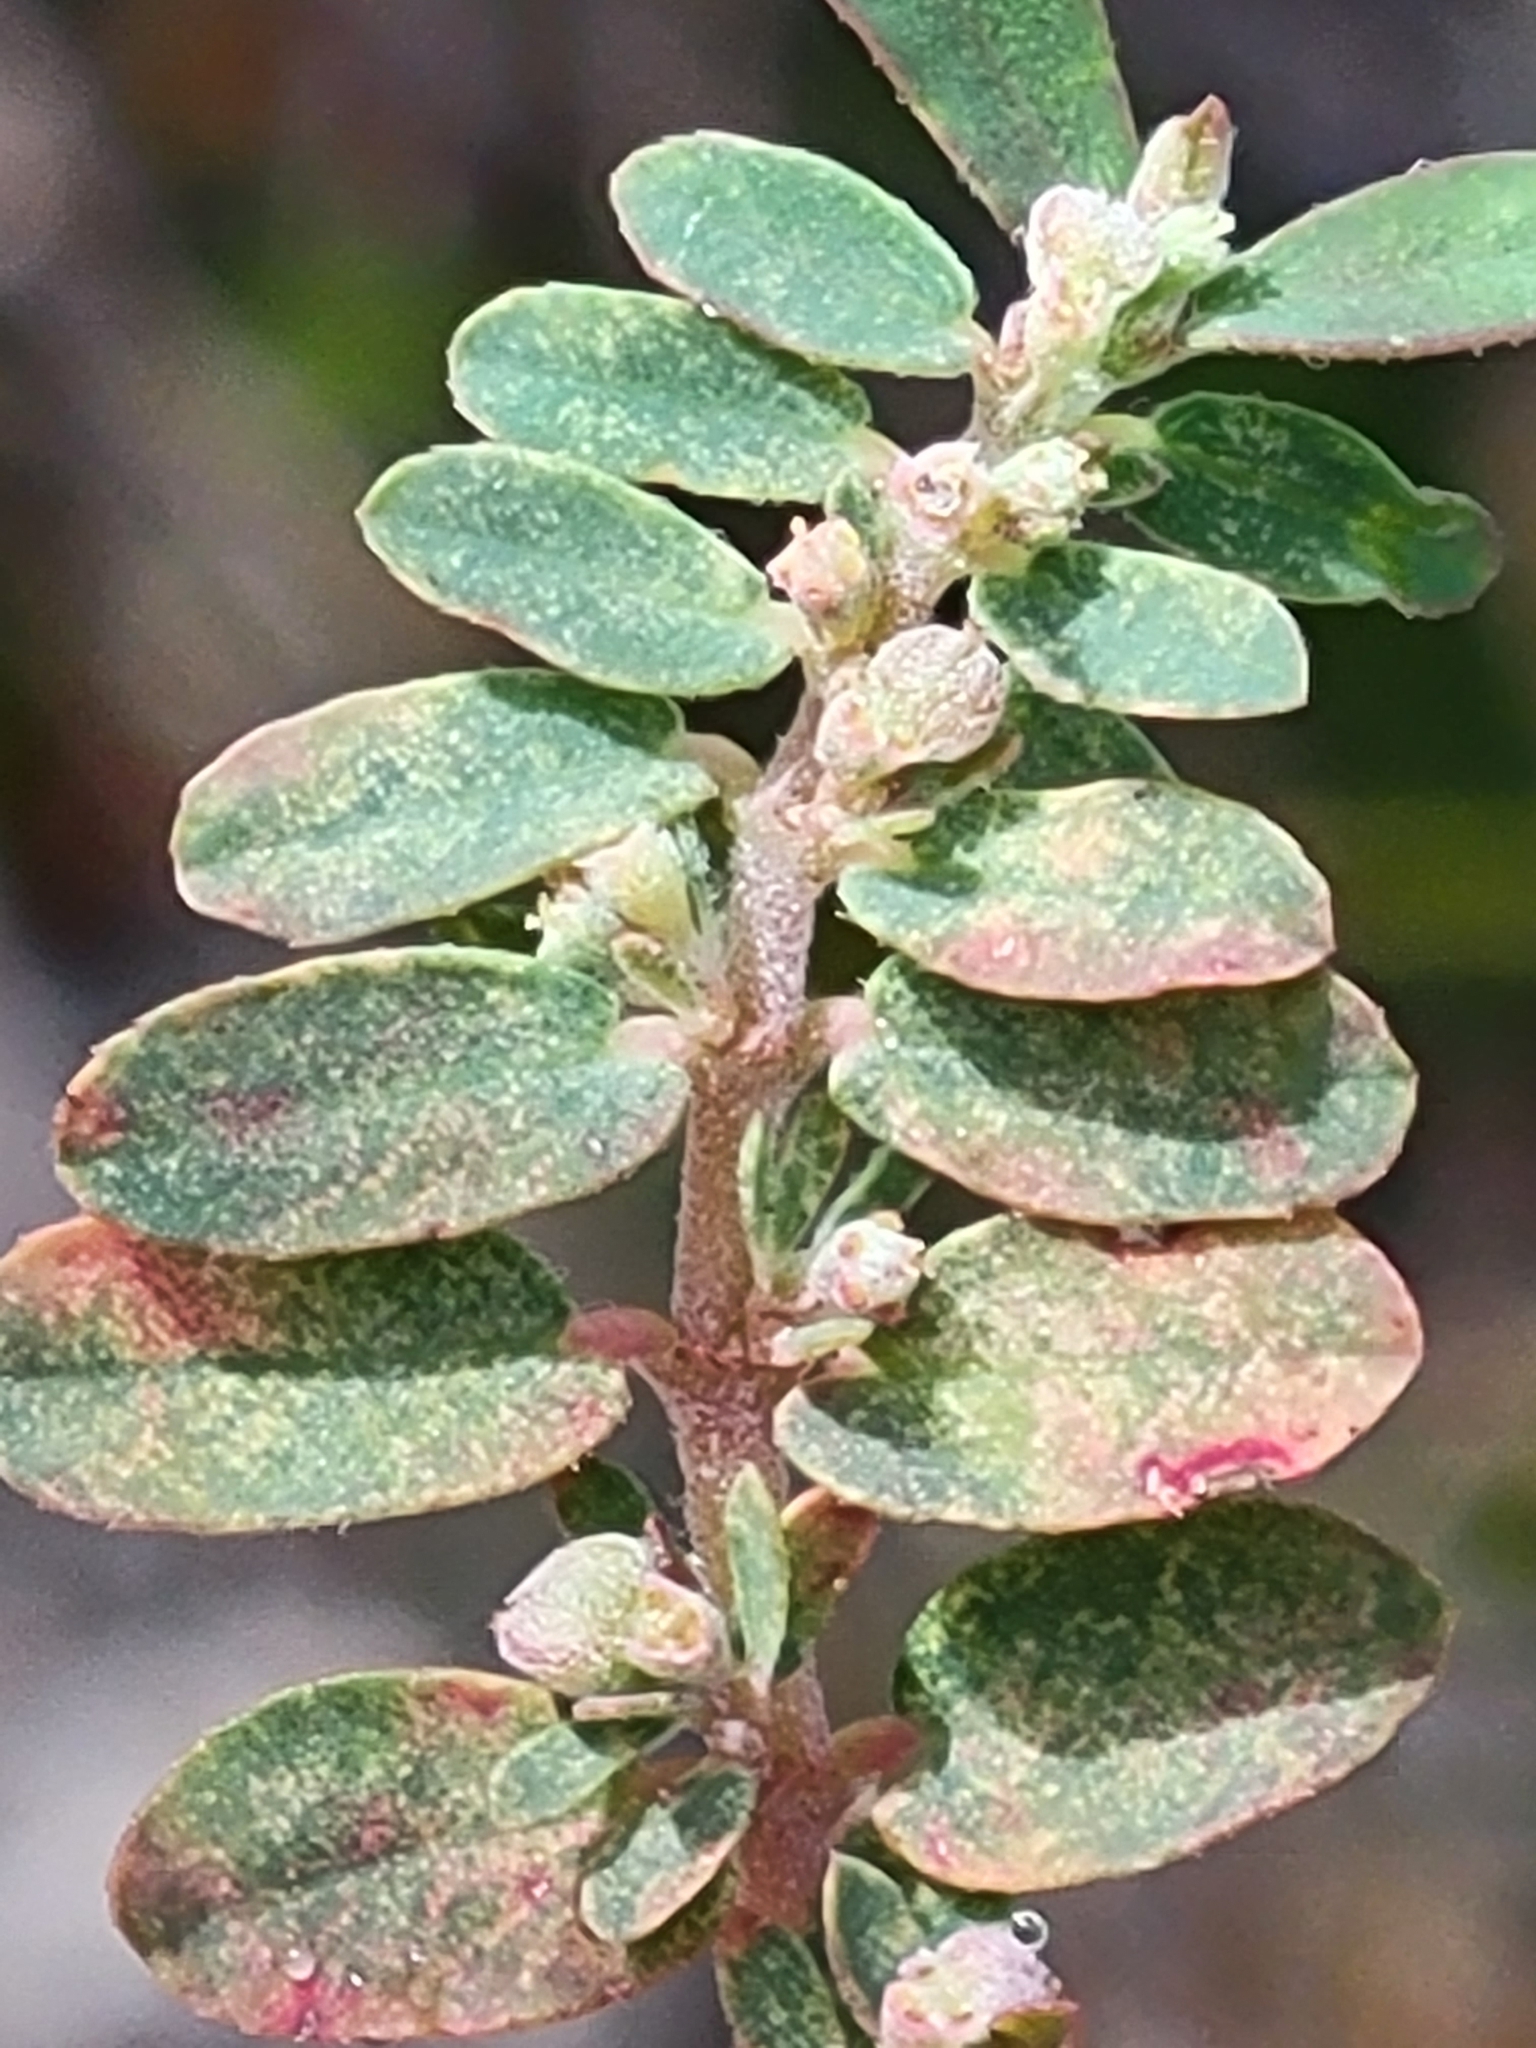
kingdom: Plantae
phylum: Tracheophyta
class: Magnoliopsida
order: Malpighiales
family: Euphorbiaceae
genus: Euphorbia
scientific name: Euphorbia maculata
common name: Spotted spurge
